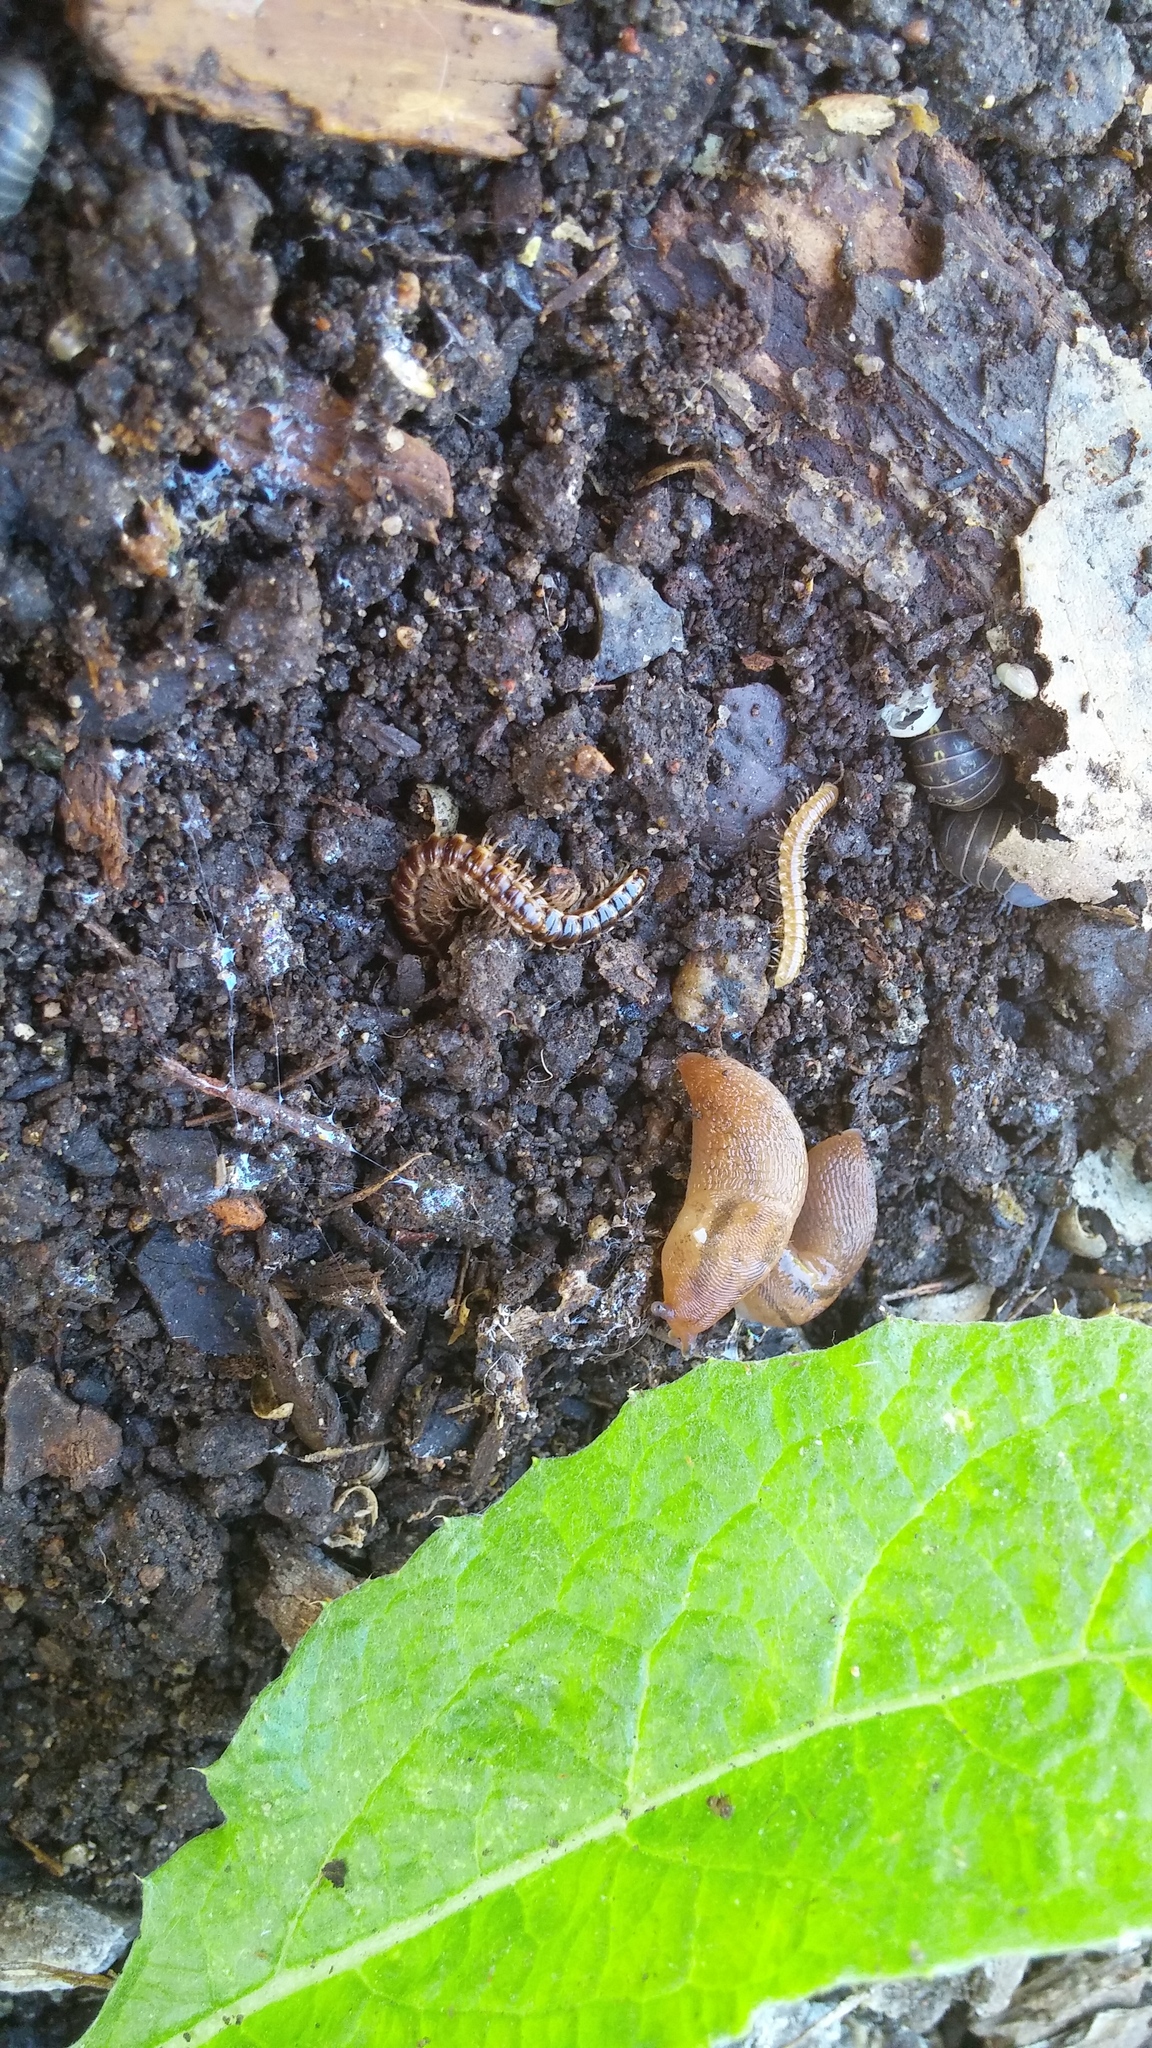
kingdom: Animalia
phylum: Arthropoda
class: Diplopoda
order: Polydesmida
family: Paradoxosomatidae
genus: Oxidus
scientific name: Oxidus gracilis
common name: Greenhouse millipede
